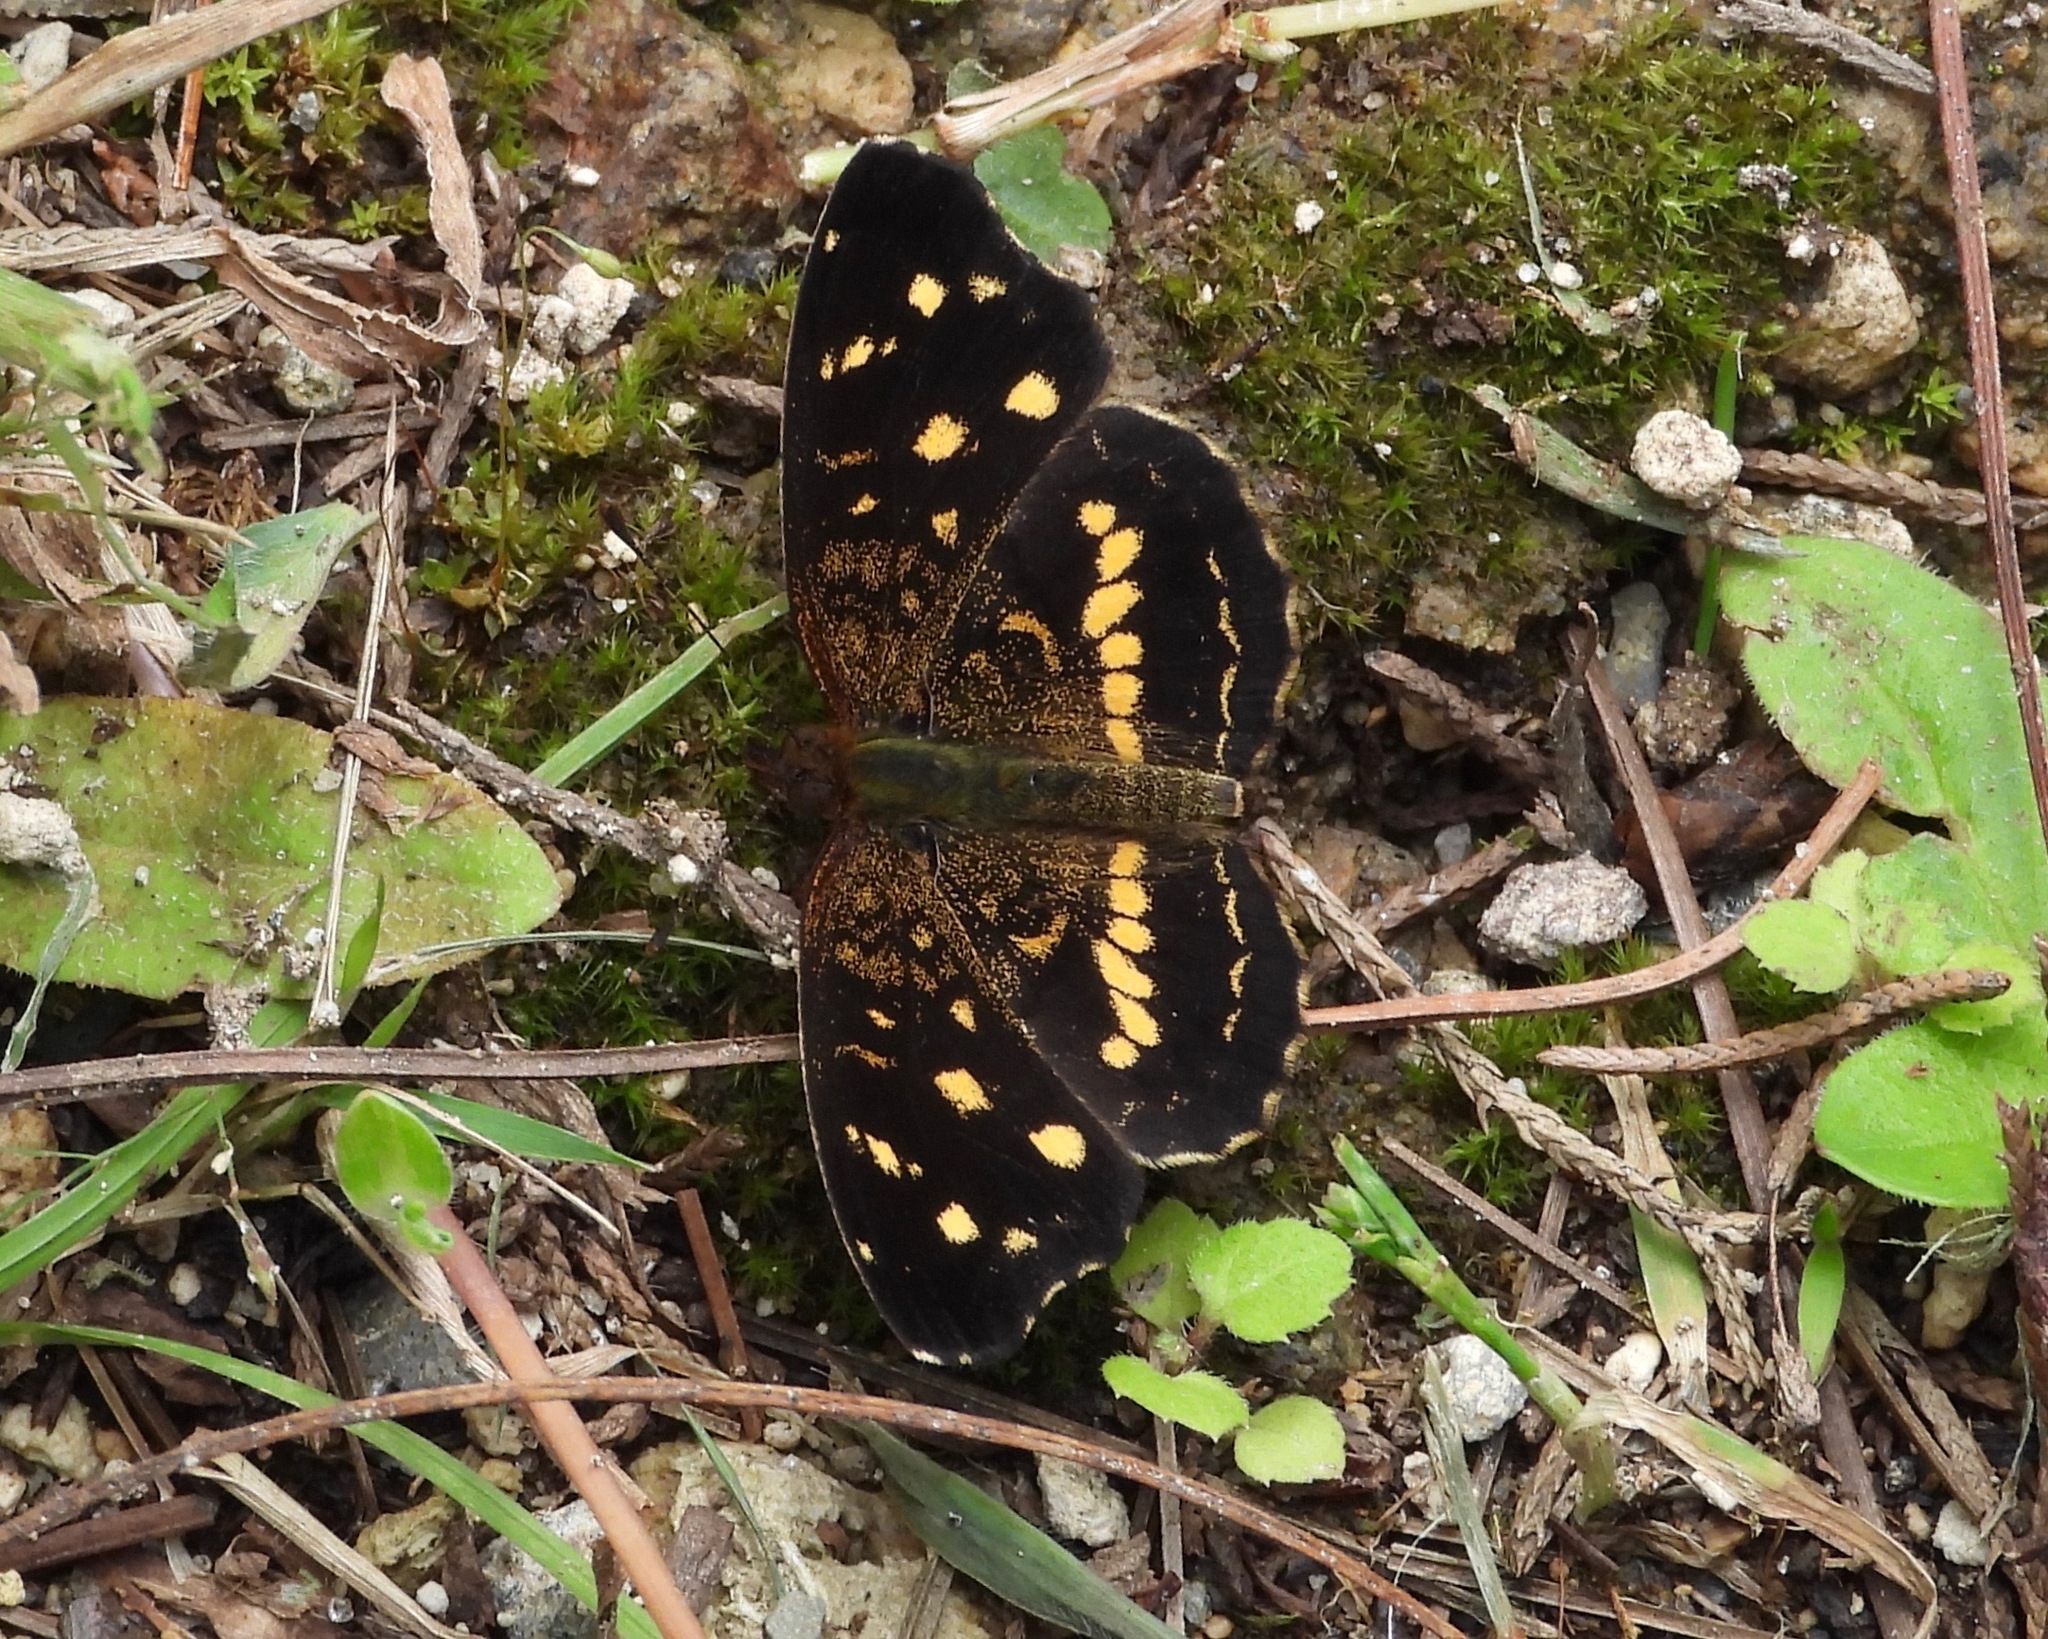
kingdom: Animalia
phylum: Arthropoda
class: Insecta
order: Lepidoptera
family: Nymphalidae
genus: Anthanassa
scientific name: Anthanassa tulcis
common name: Pale-banded crescent
